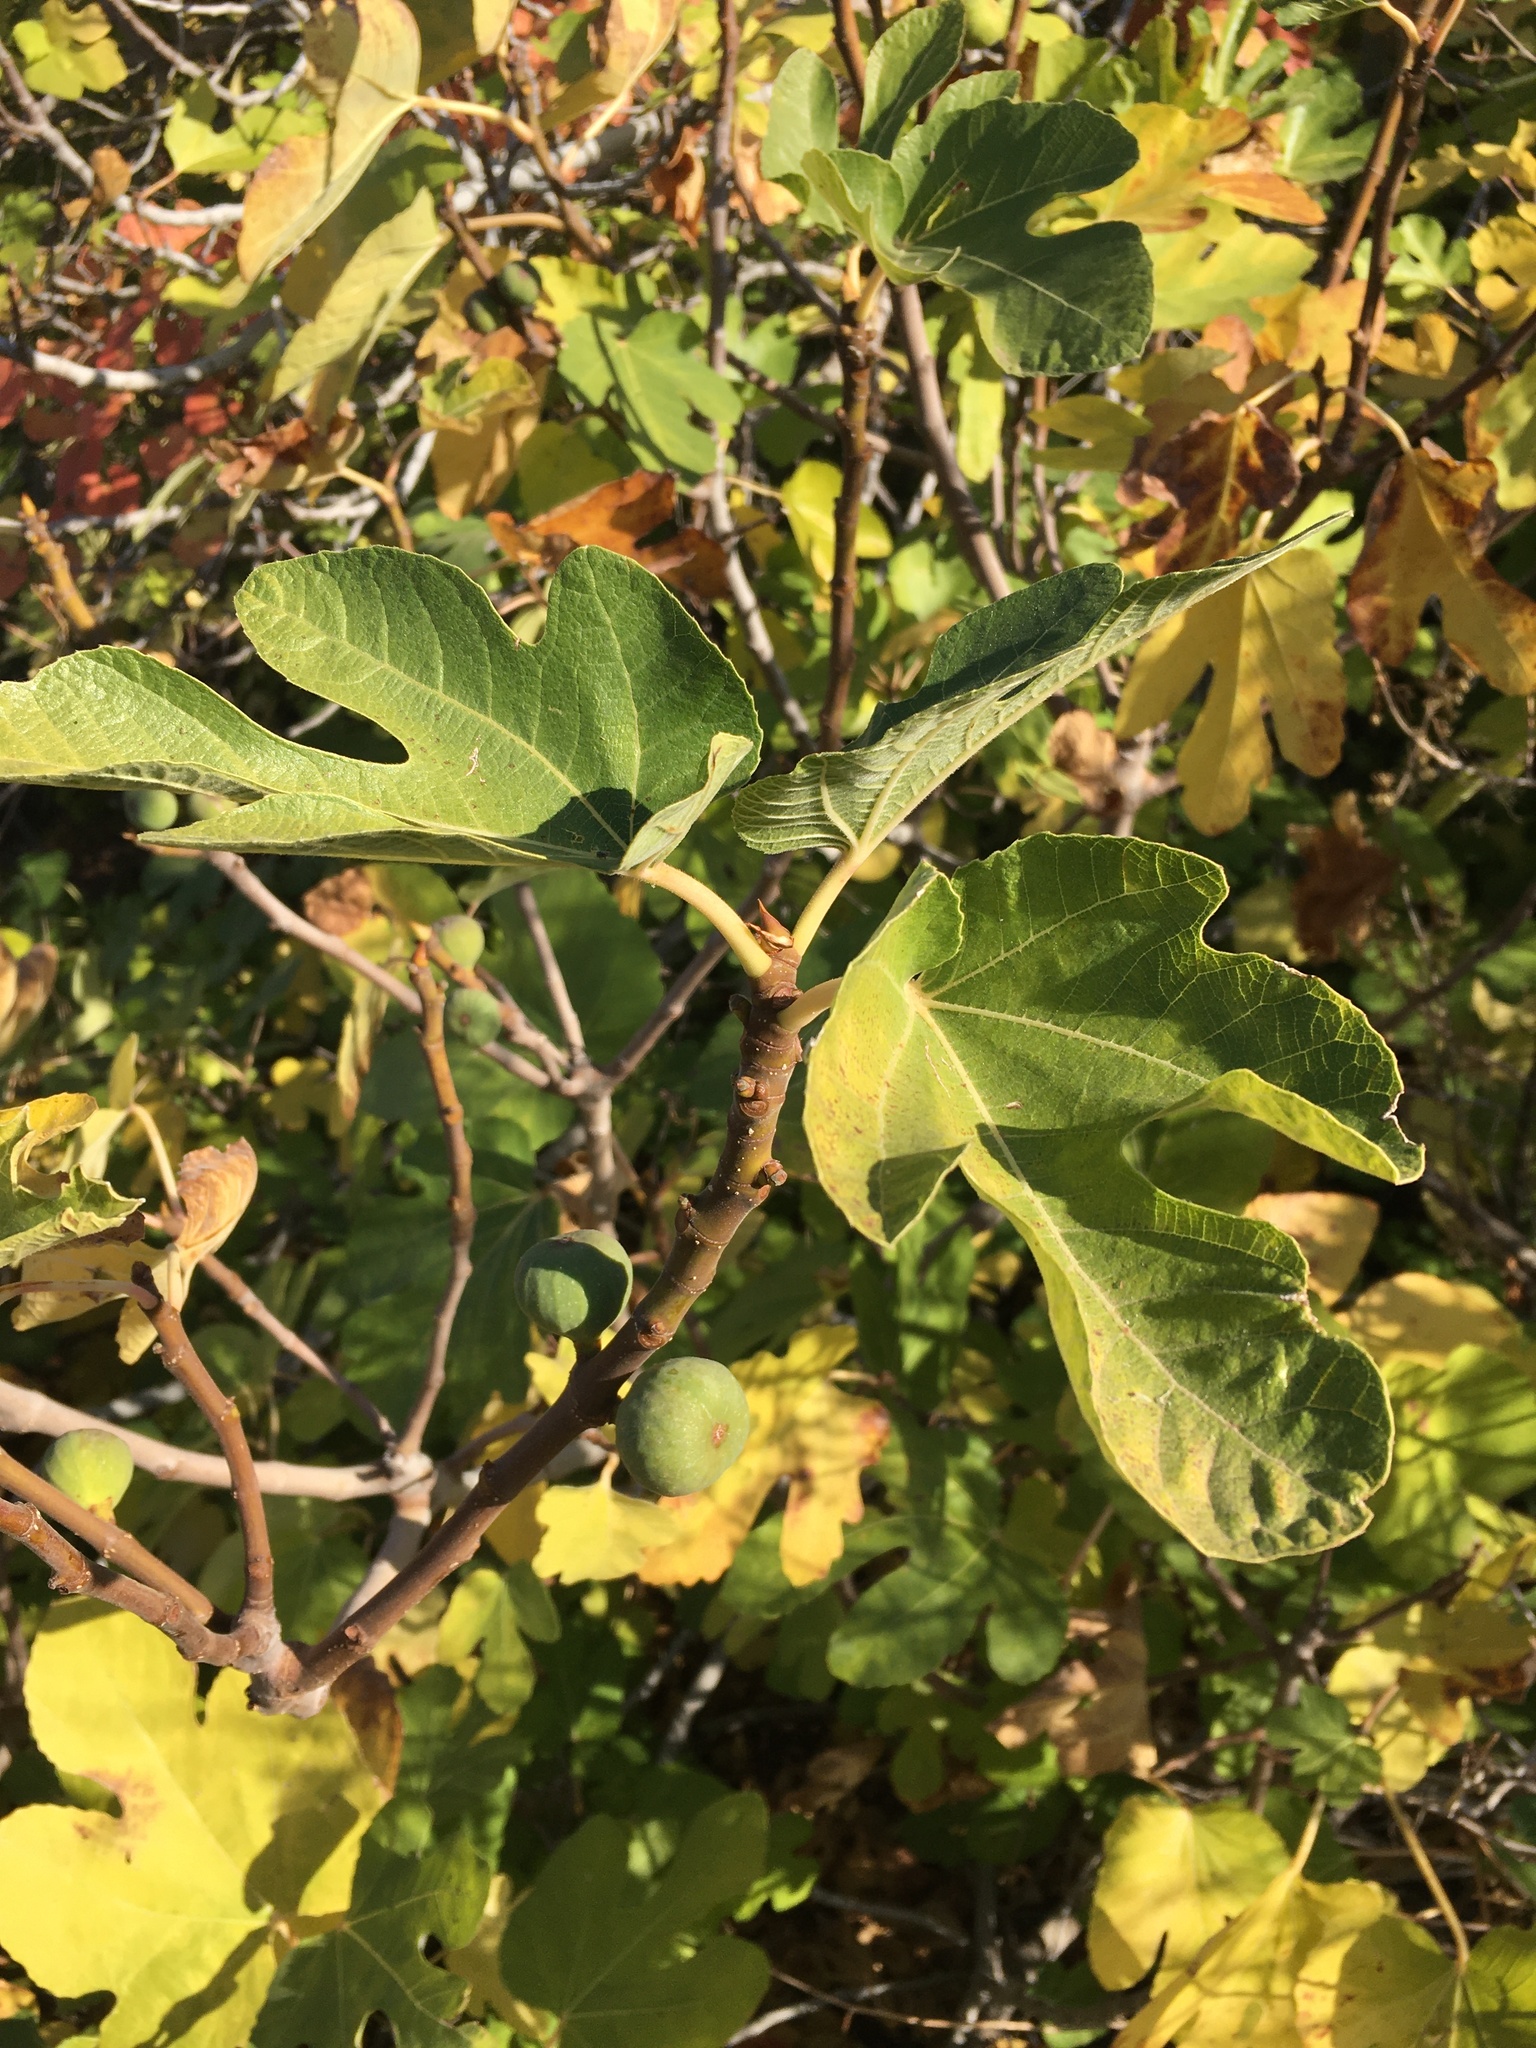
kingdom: Plantae
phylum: Tracheophyta
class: Magnoliopsida
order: Rosales
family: Moraceae
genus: Ficus
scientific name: Ficus carica
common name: Fig
